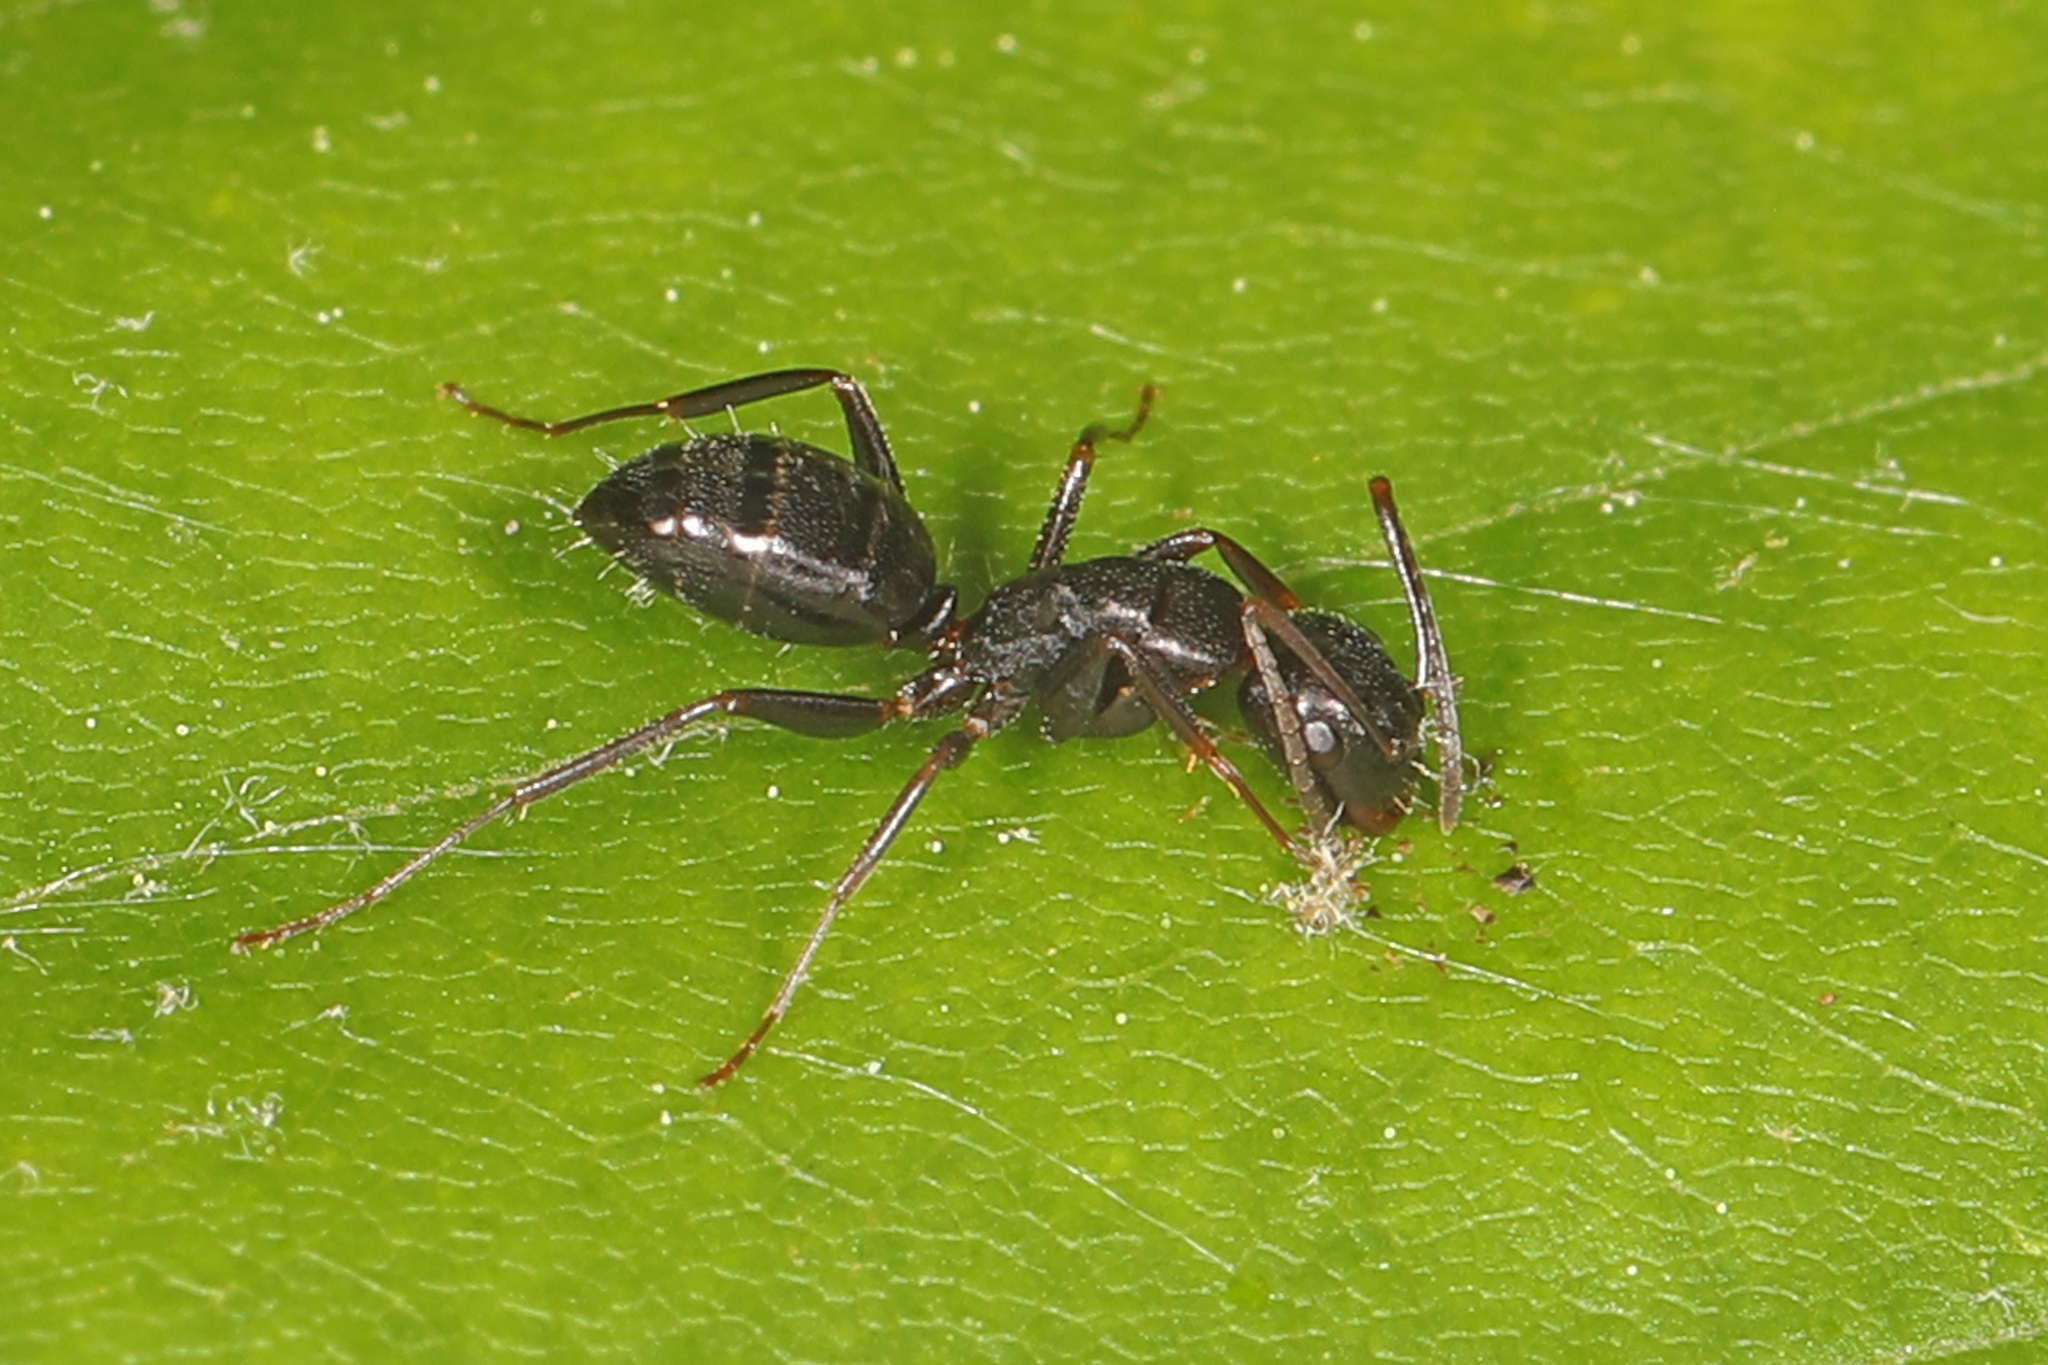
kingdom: Animalia
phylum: Arthropoda
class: Insecta
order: Hymenoptera
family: Formicidae
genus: Camponotus
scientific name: Camponotus nearcticus
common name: Smaller carpenter ant
